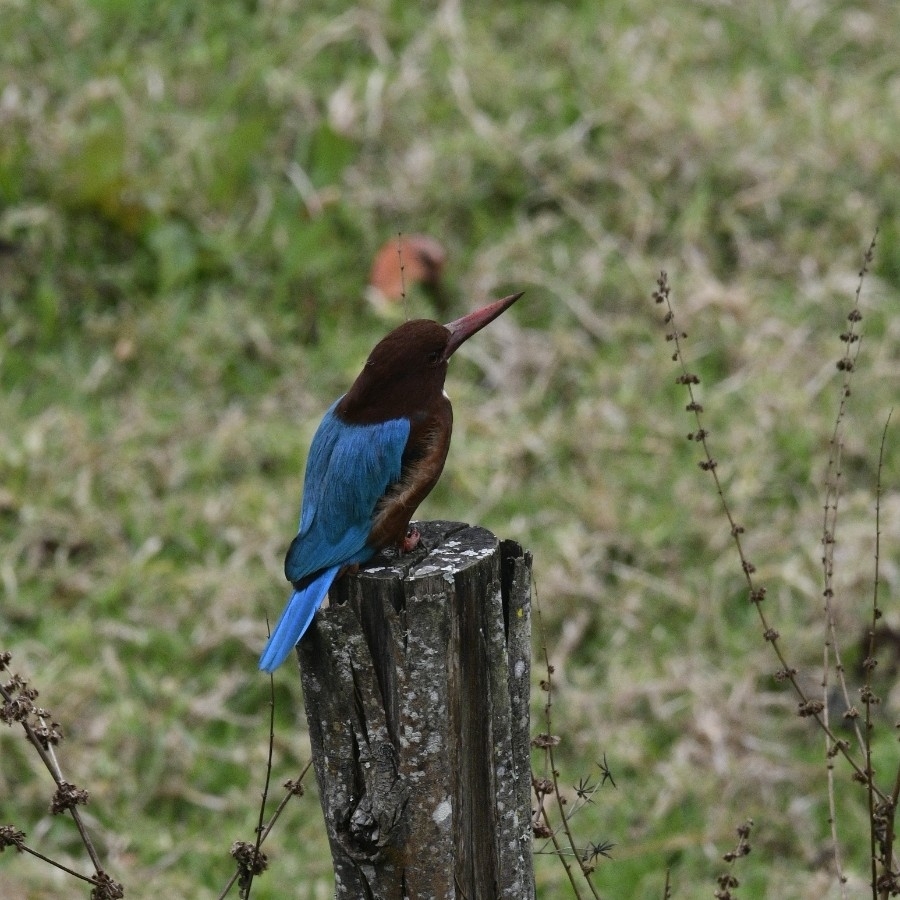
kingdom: Animalia
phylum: Chordata
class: Aves
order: Coraciiformes
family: Alcedinidae
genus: Halcyon
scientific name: Halcyon smyrnensis
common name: White-throated kingfisher
